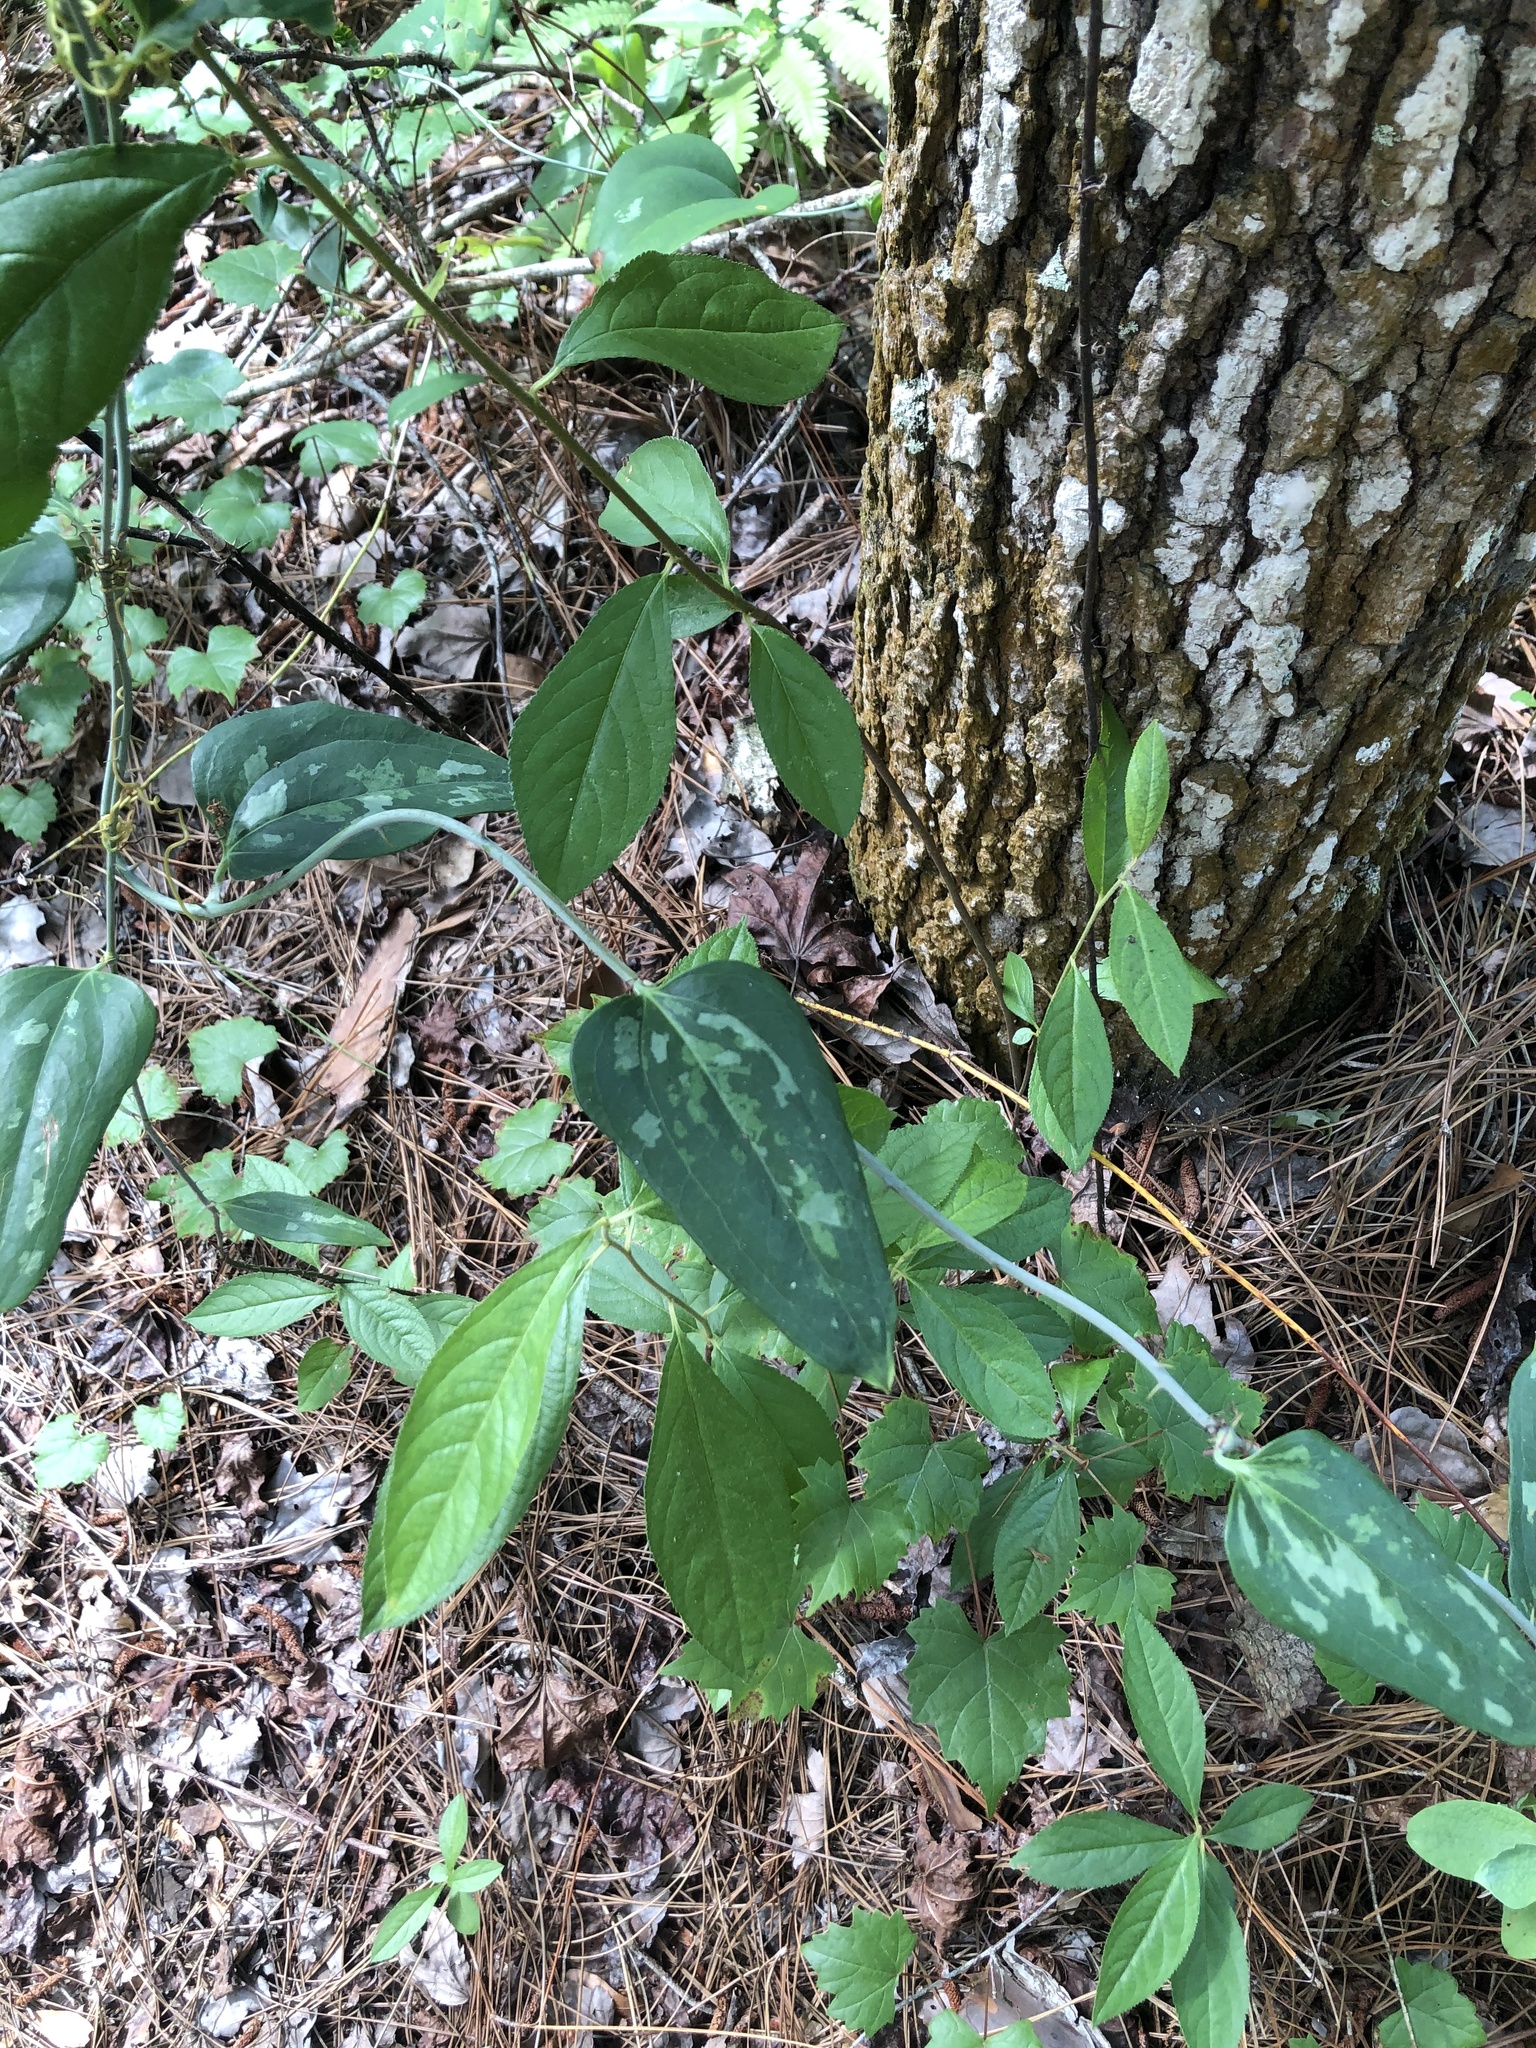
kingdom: Plantae
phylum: Tracheophyta
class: Liliopsida
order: Liliales
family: Smilacaceae
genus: Smilax
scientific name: Smilax glauca
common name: Cat greenbrier
